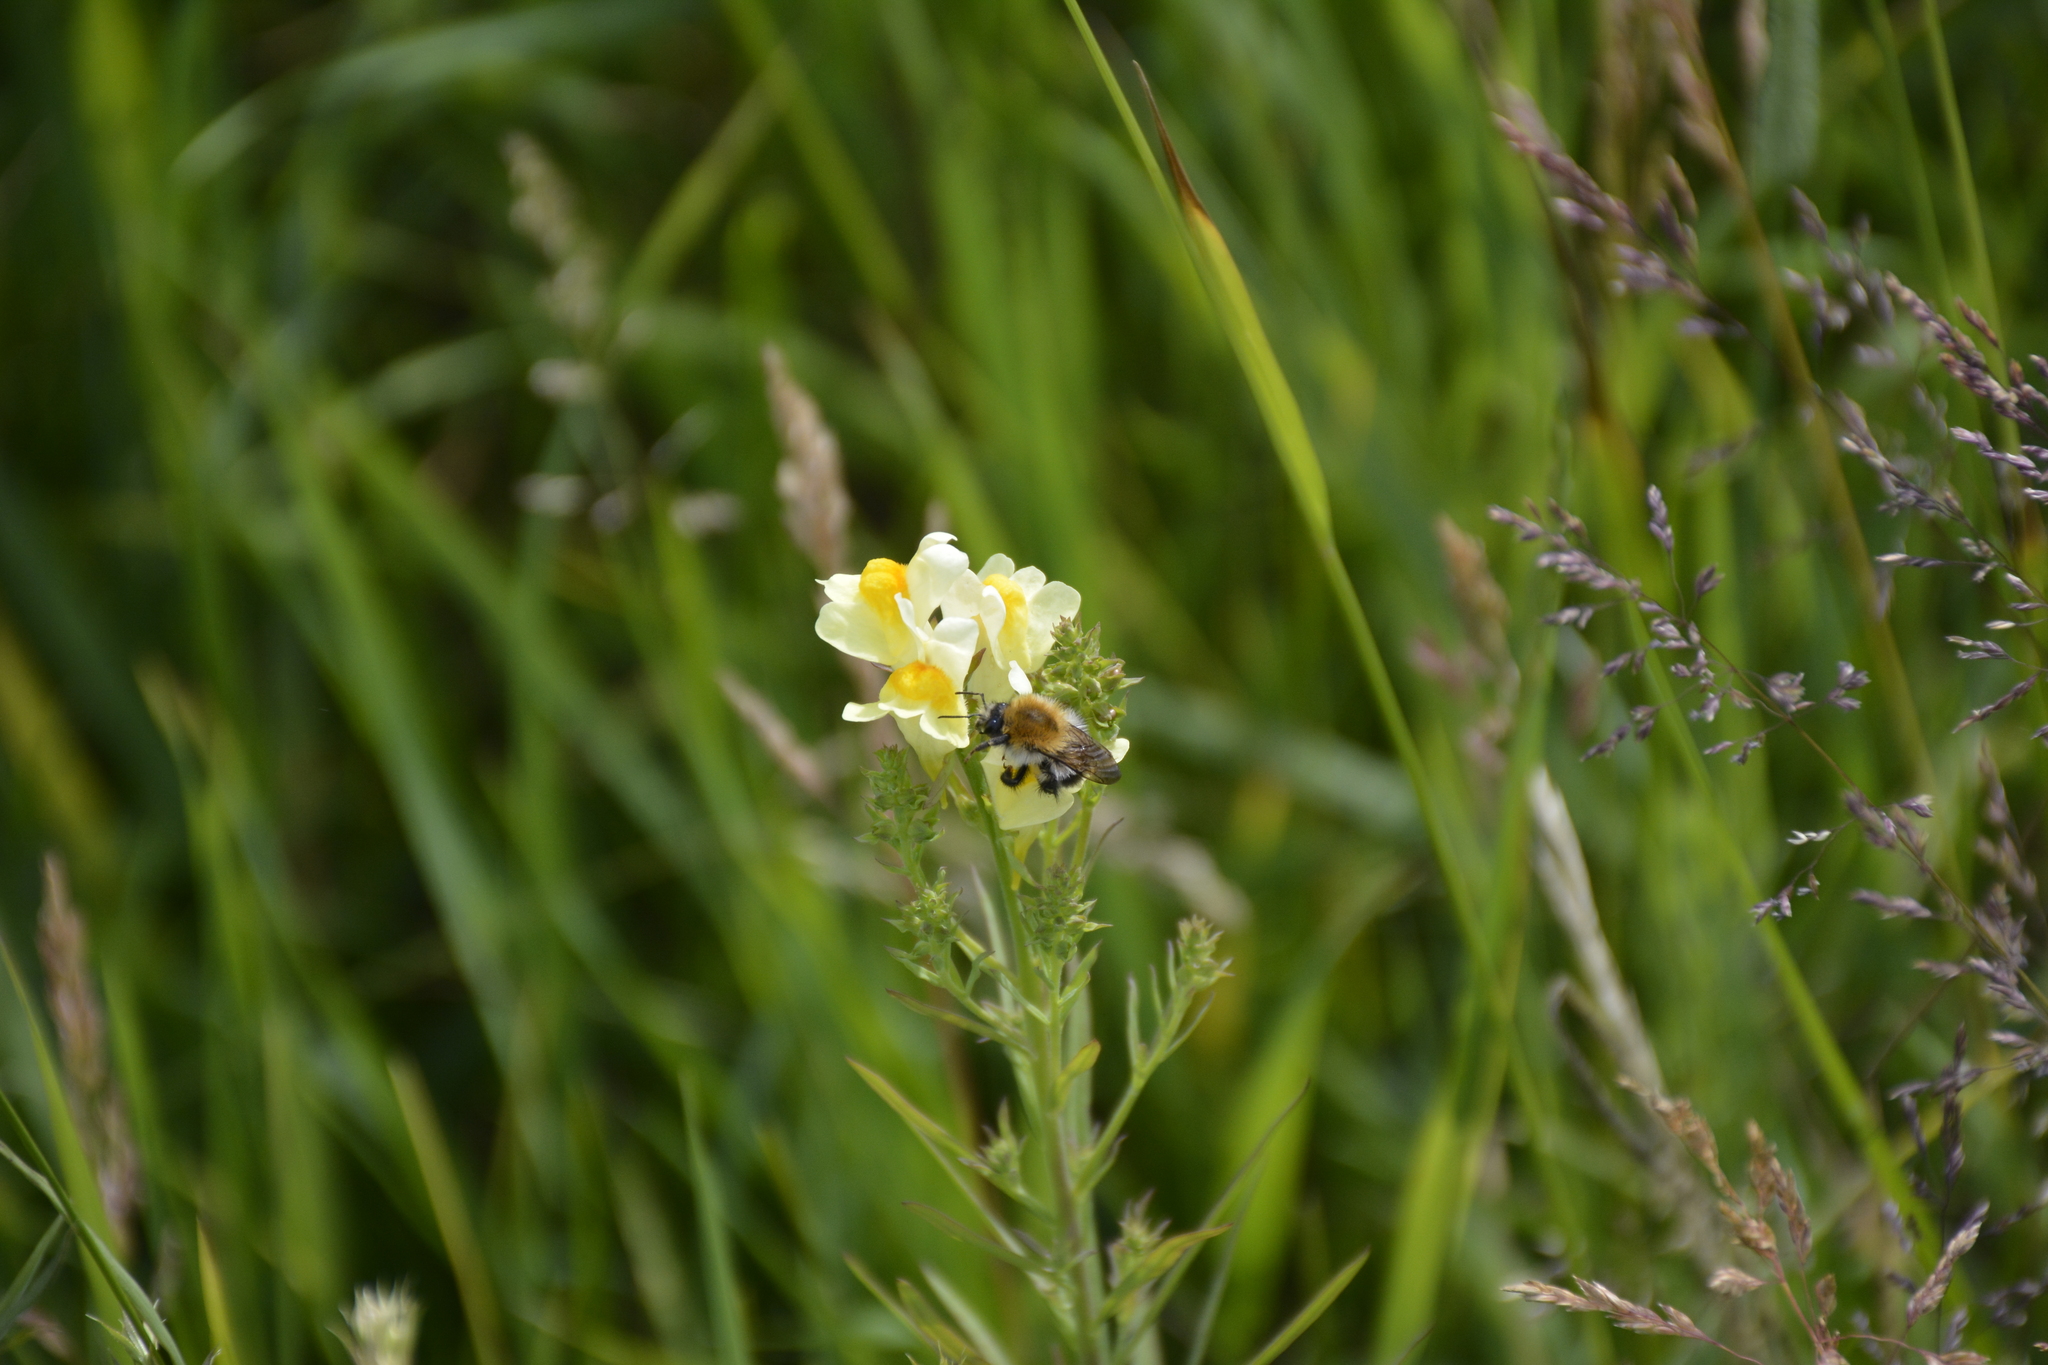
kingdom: Plantae
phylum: Tracheophyta
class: Magnoliopsida
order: Lamiales
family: Plantaginaceae
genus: Linaria
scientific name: Linaria vulgaris
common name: Butter and eggs
